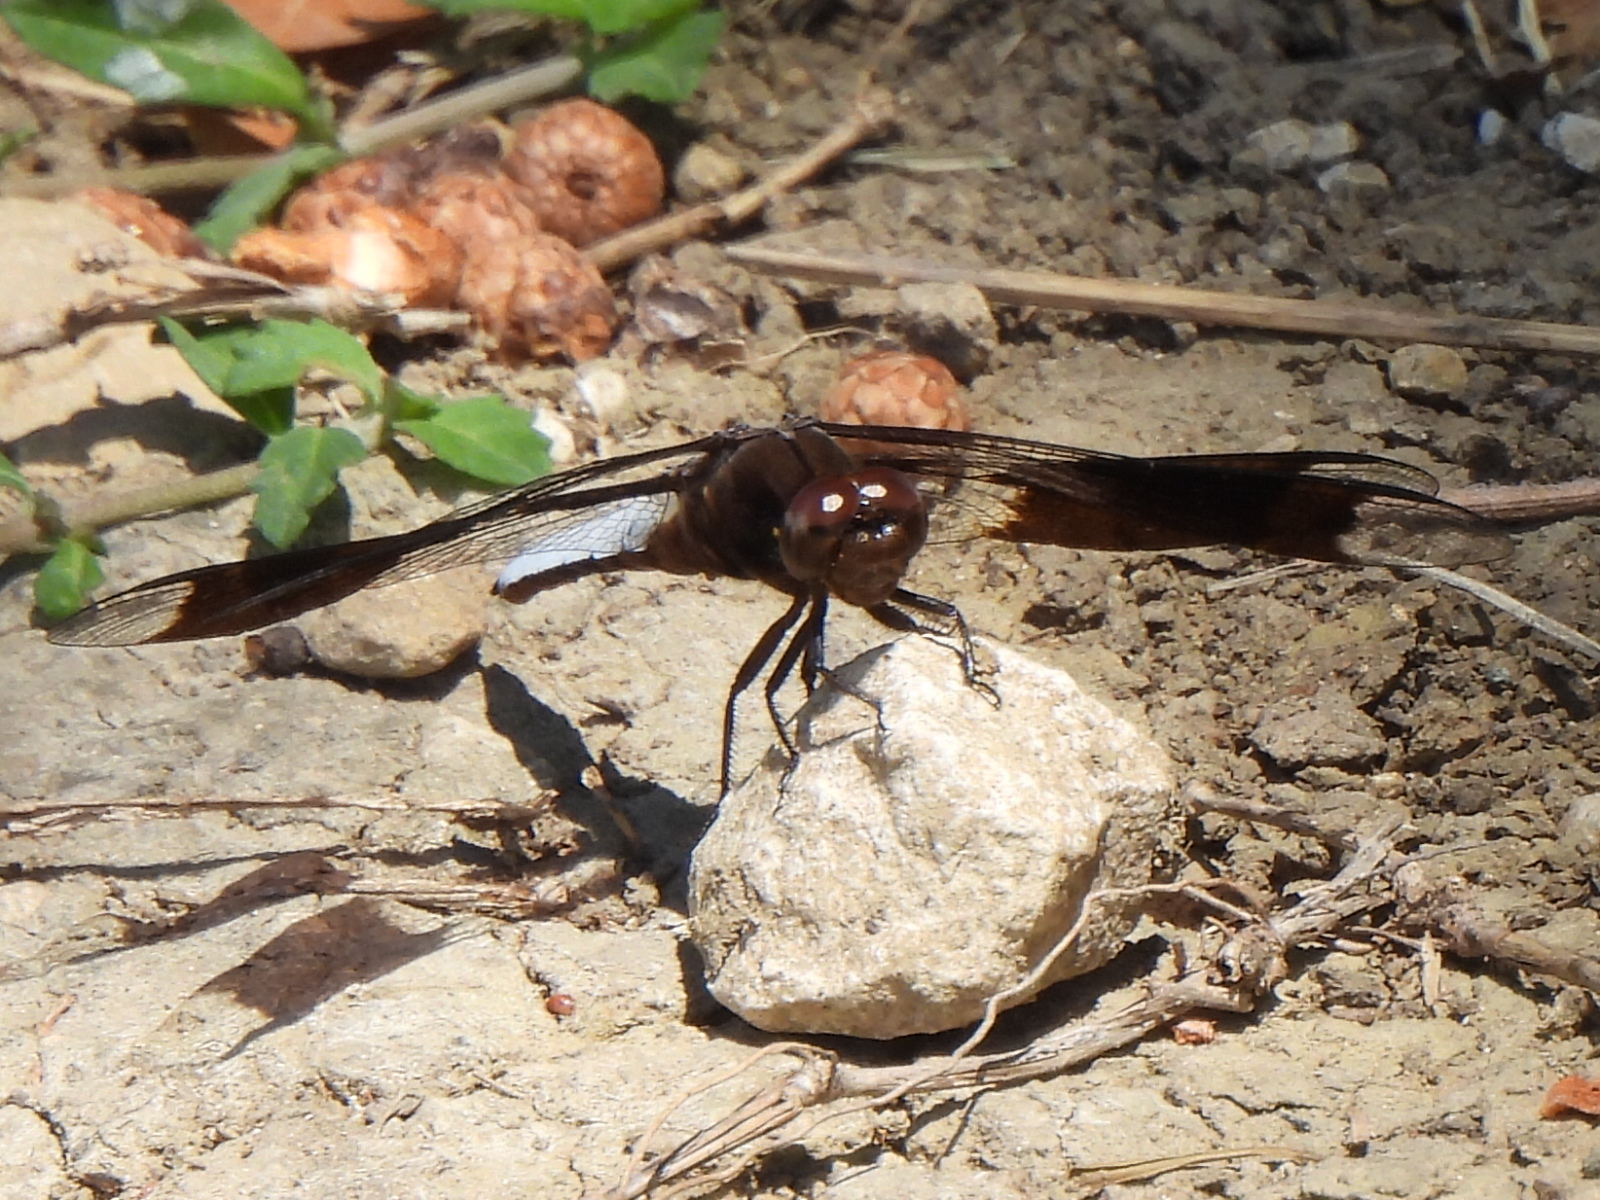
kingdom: Animalia
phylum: Arthropoda
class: Insecta
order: Odonata
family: Libellulidae
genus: Plathemis
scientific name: Plathemis lydia
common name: Common whitetail
